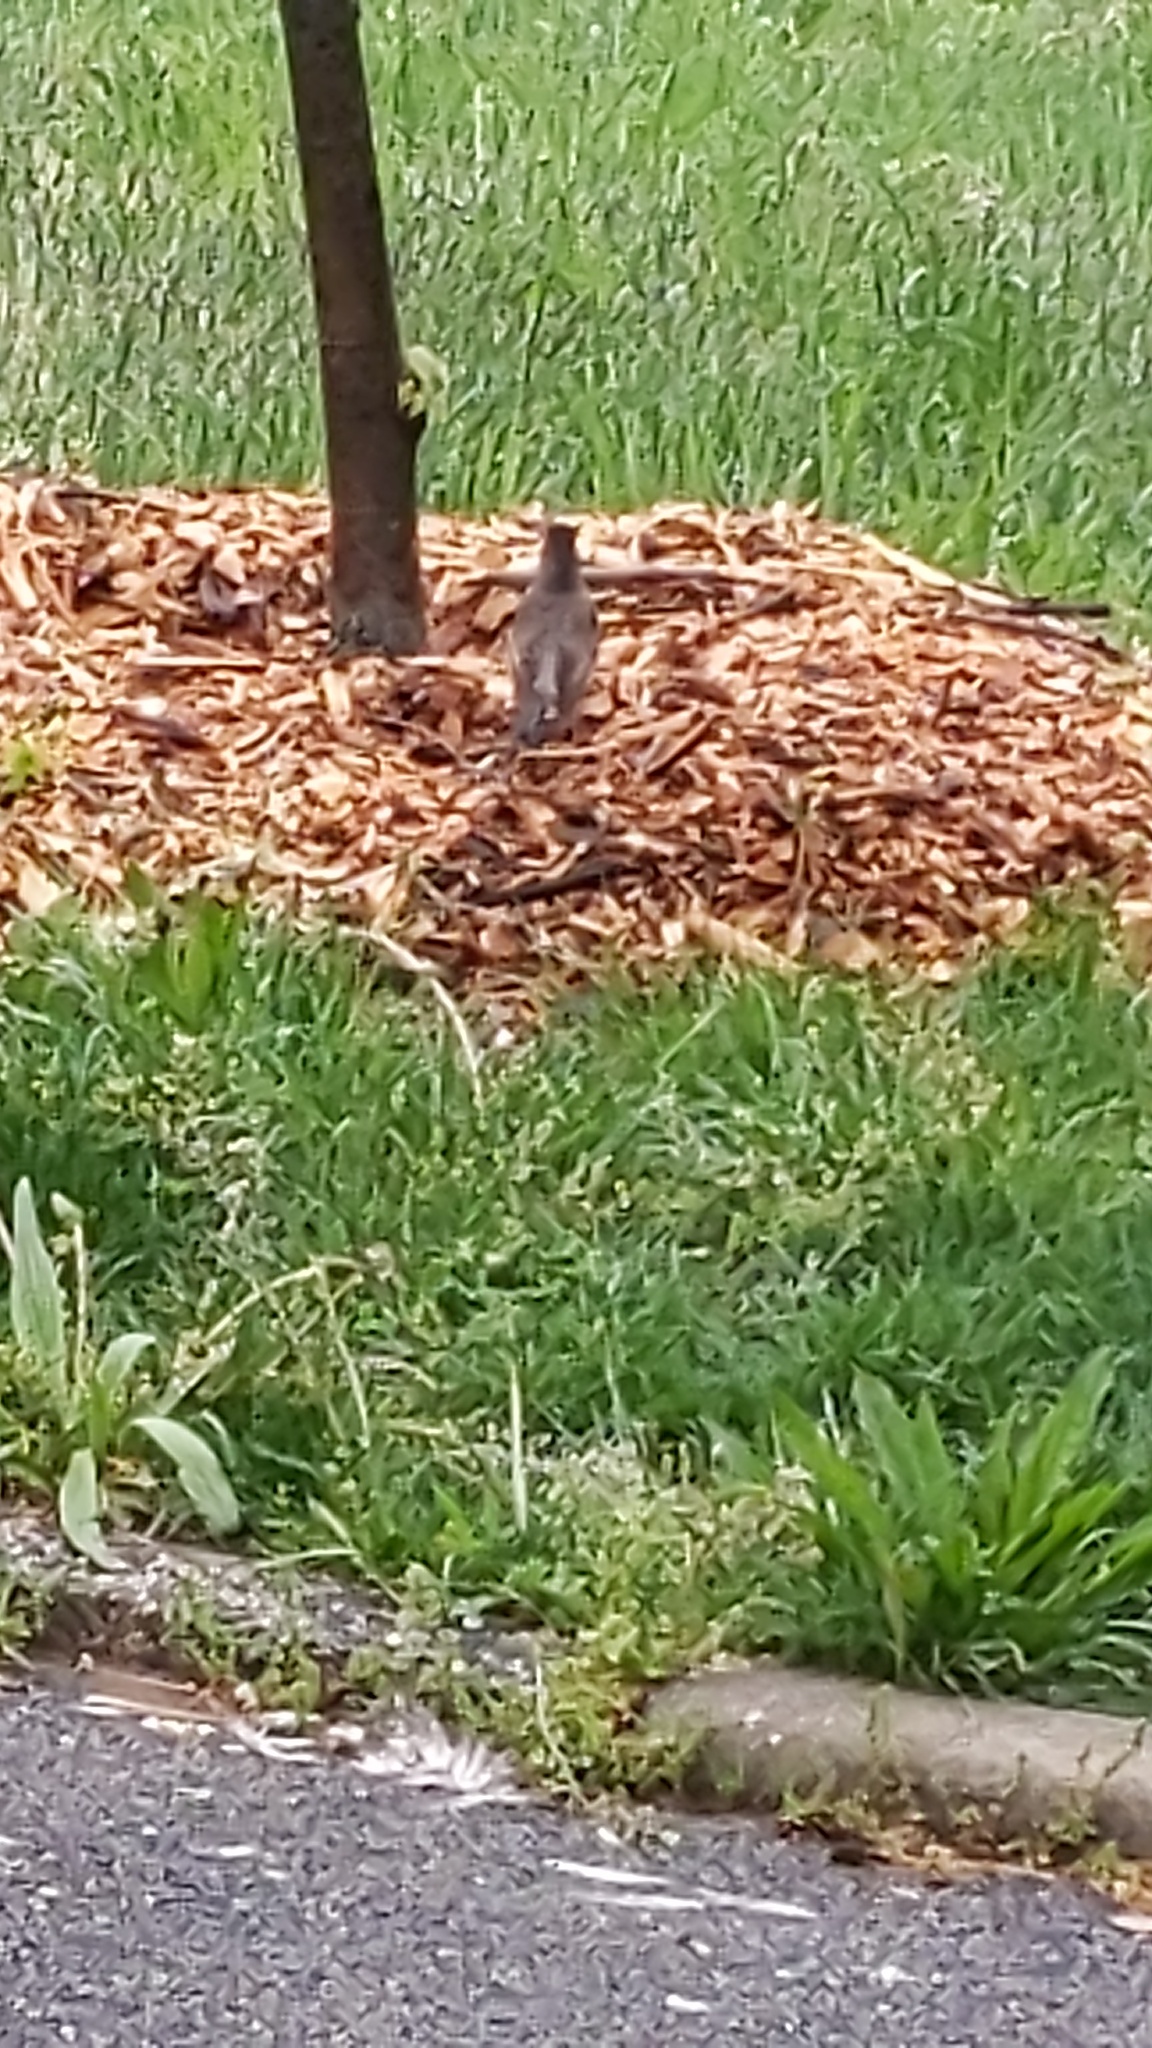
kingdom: Animalia
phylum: Chordata
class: Aves
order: Passeriformes
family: Turdidae
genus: Turdus
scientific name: Turdus migratorius
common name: American robin
